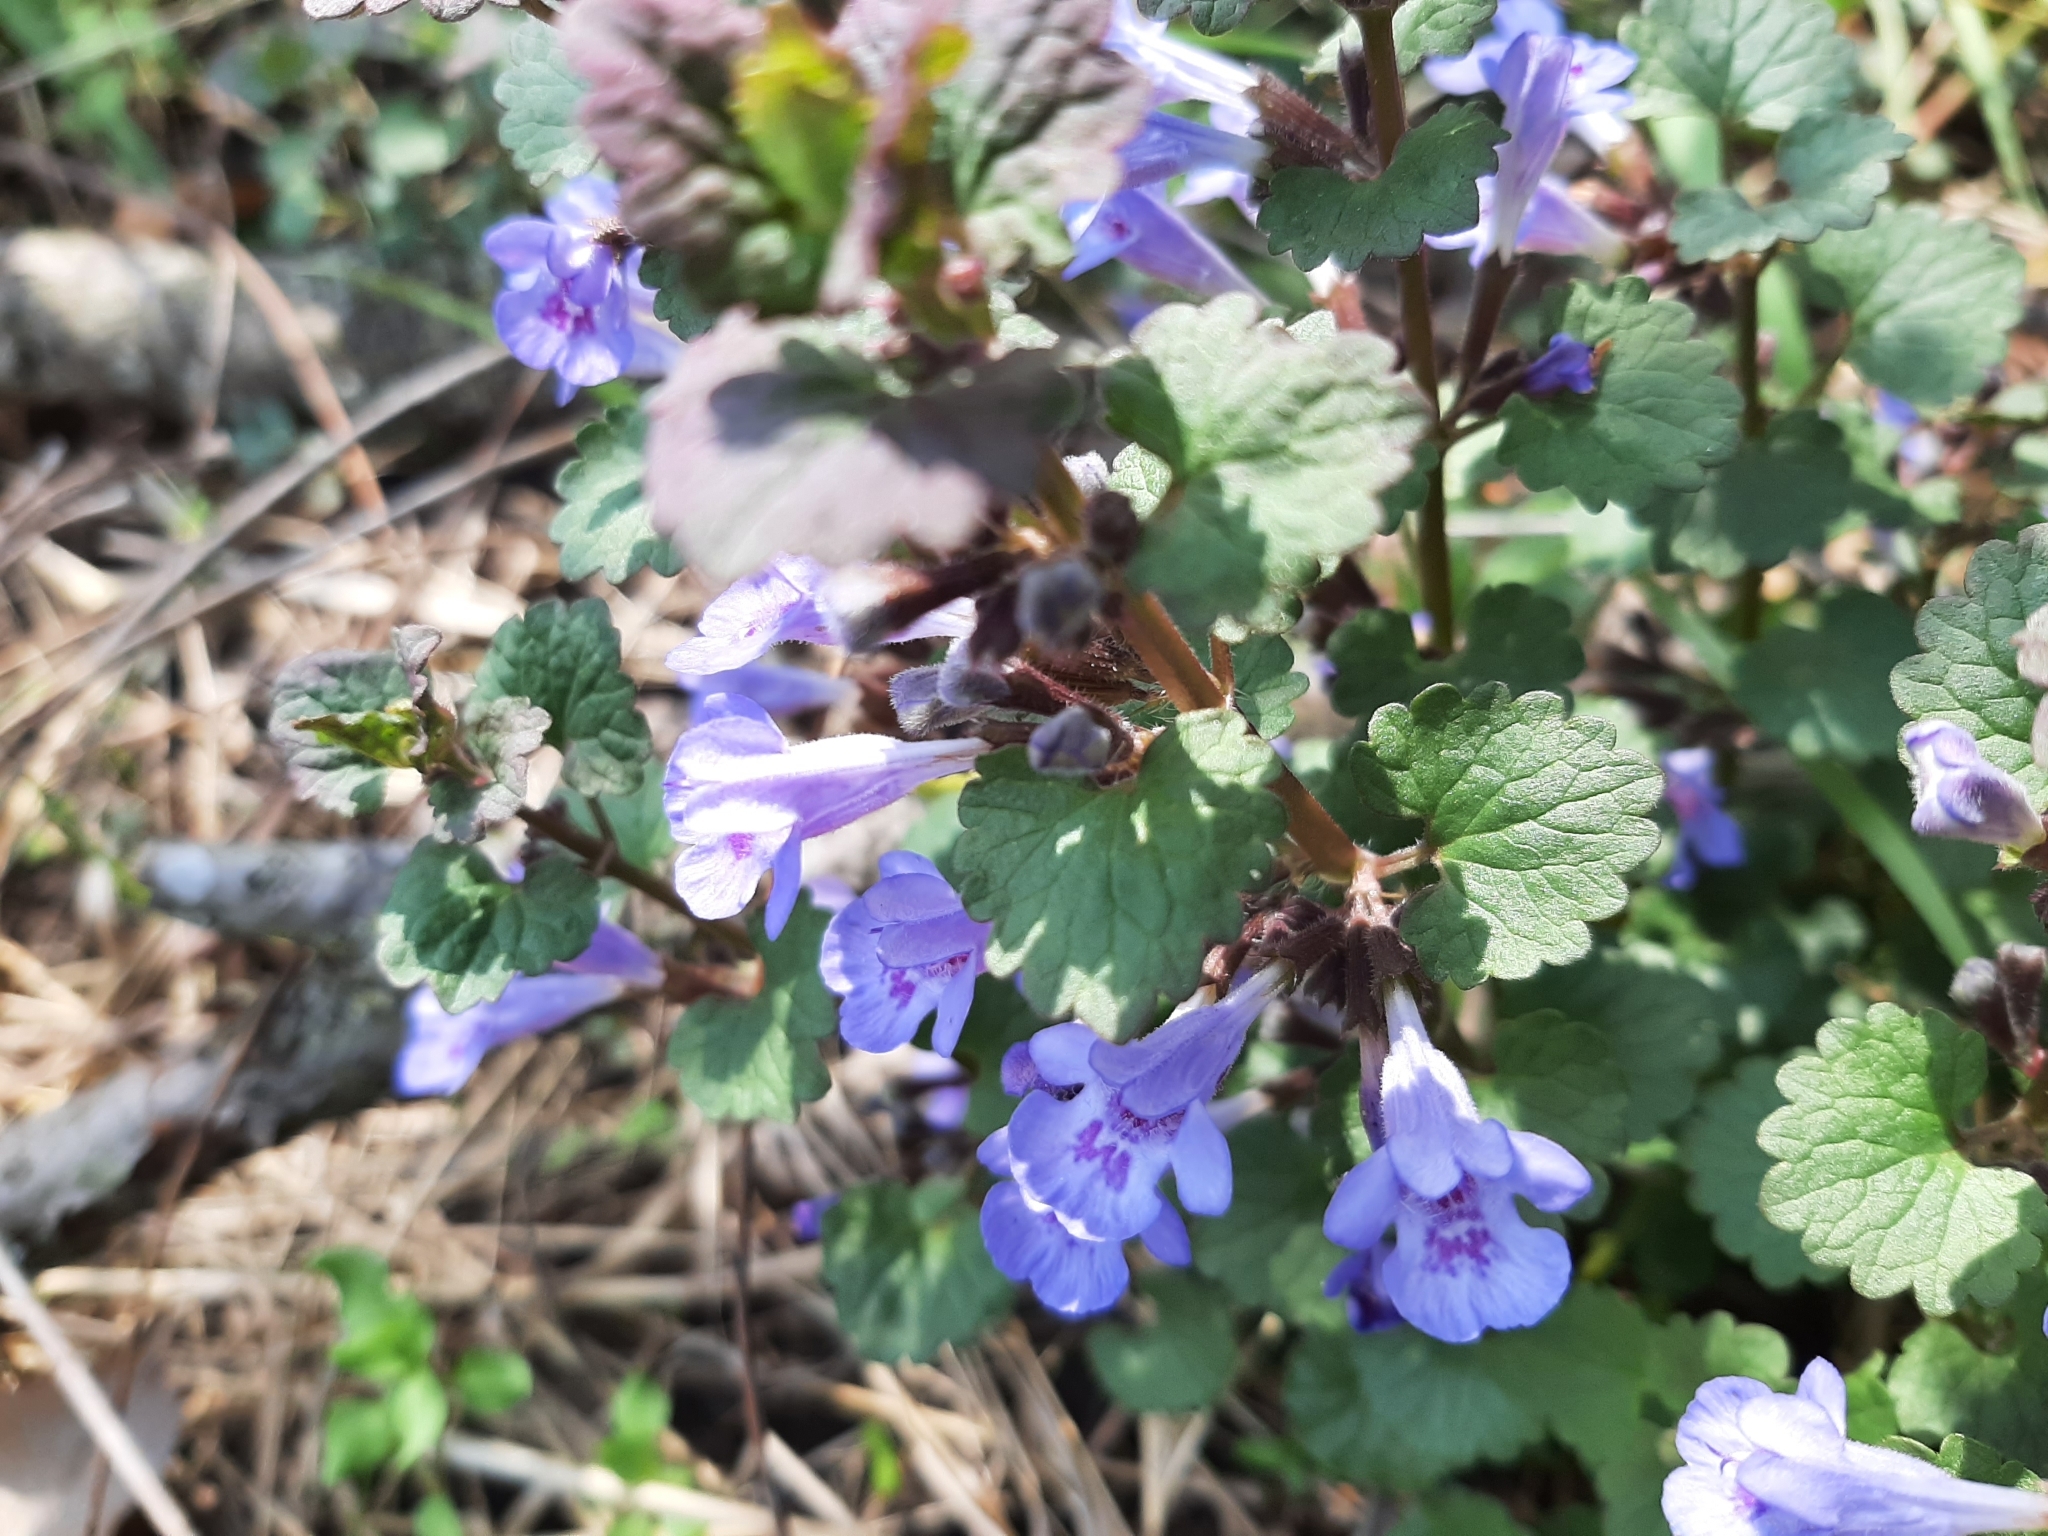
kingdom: Plantae
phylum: Tracheophyta
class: Magnoliopsida
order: Lamiales
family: Lamiaceae
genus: Glechoma
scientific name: Glechoma hederacea
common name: Ground ivy
